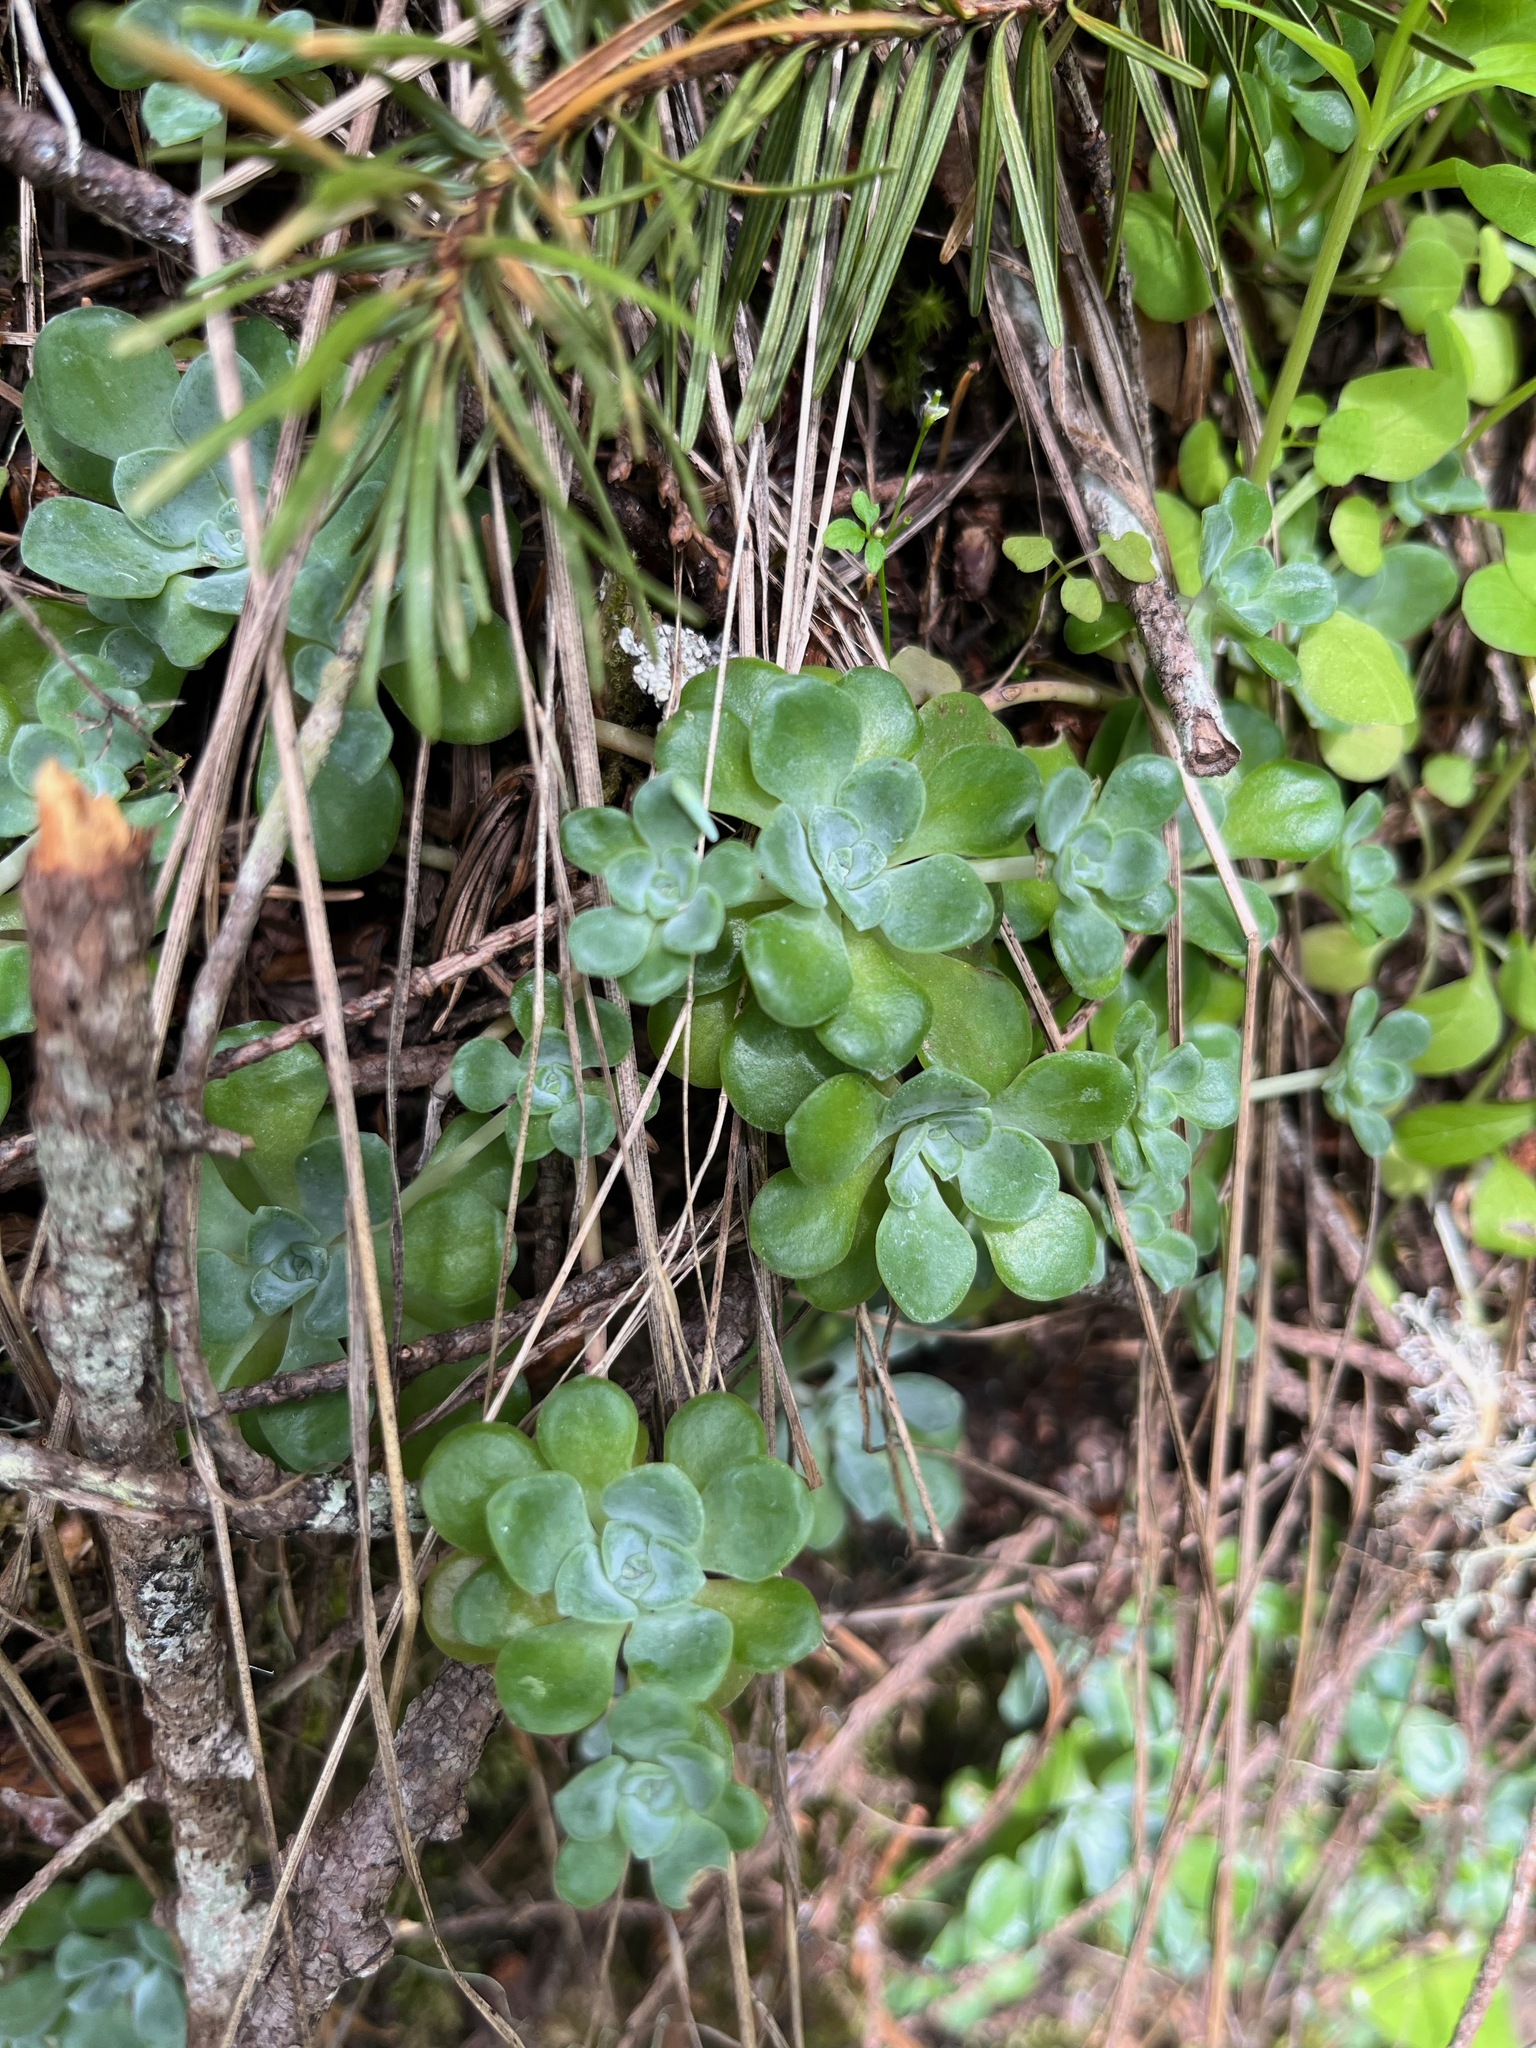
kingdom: Plantae
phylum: Tracheophyta
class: Magnoliopsida
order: Saxifragales
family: Crassulaceae
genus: Sedum
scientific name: Sedum spathulifolium
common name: Colorado stonecrop
